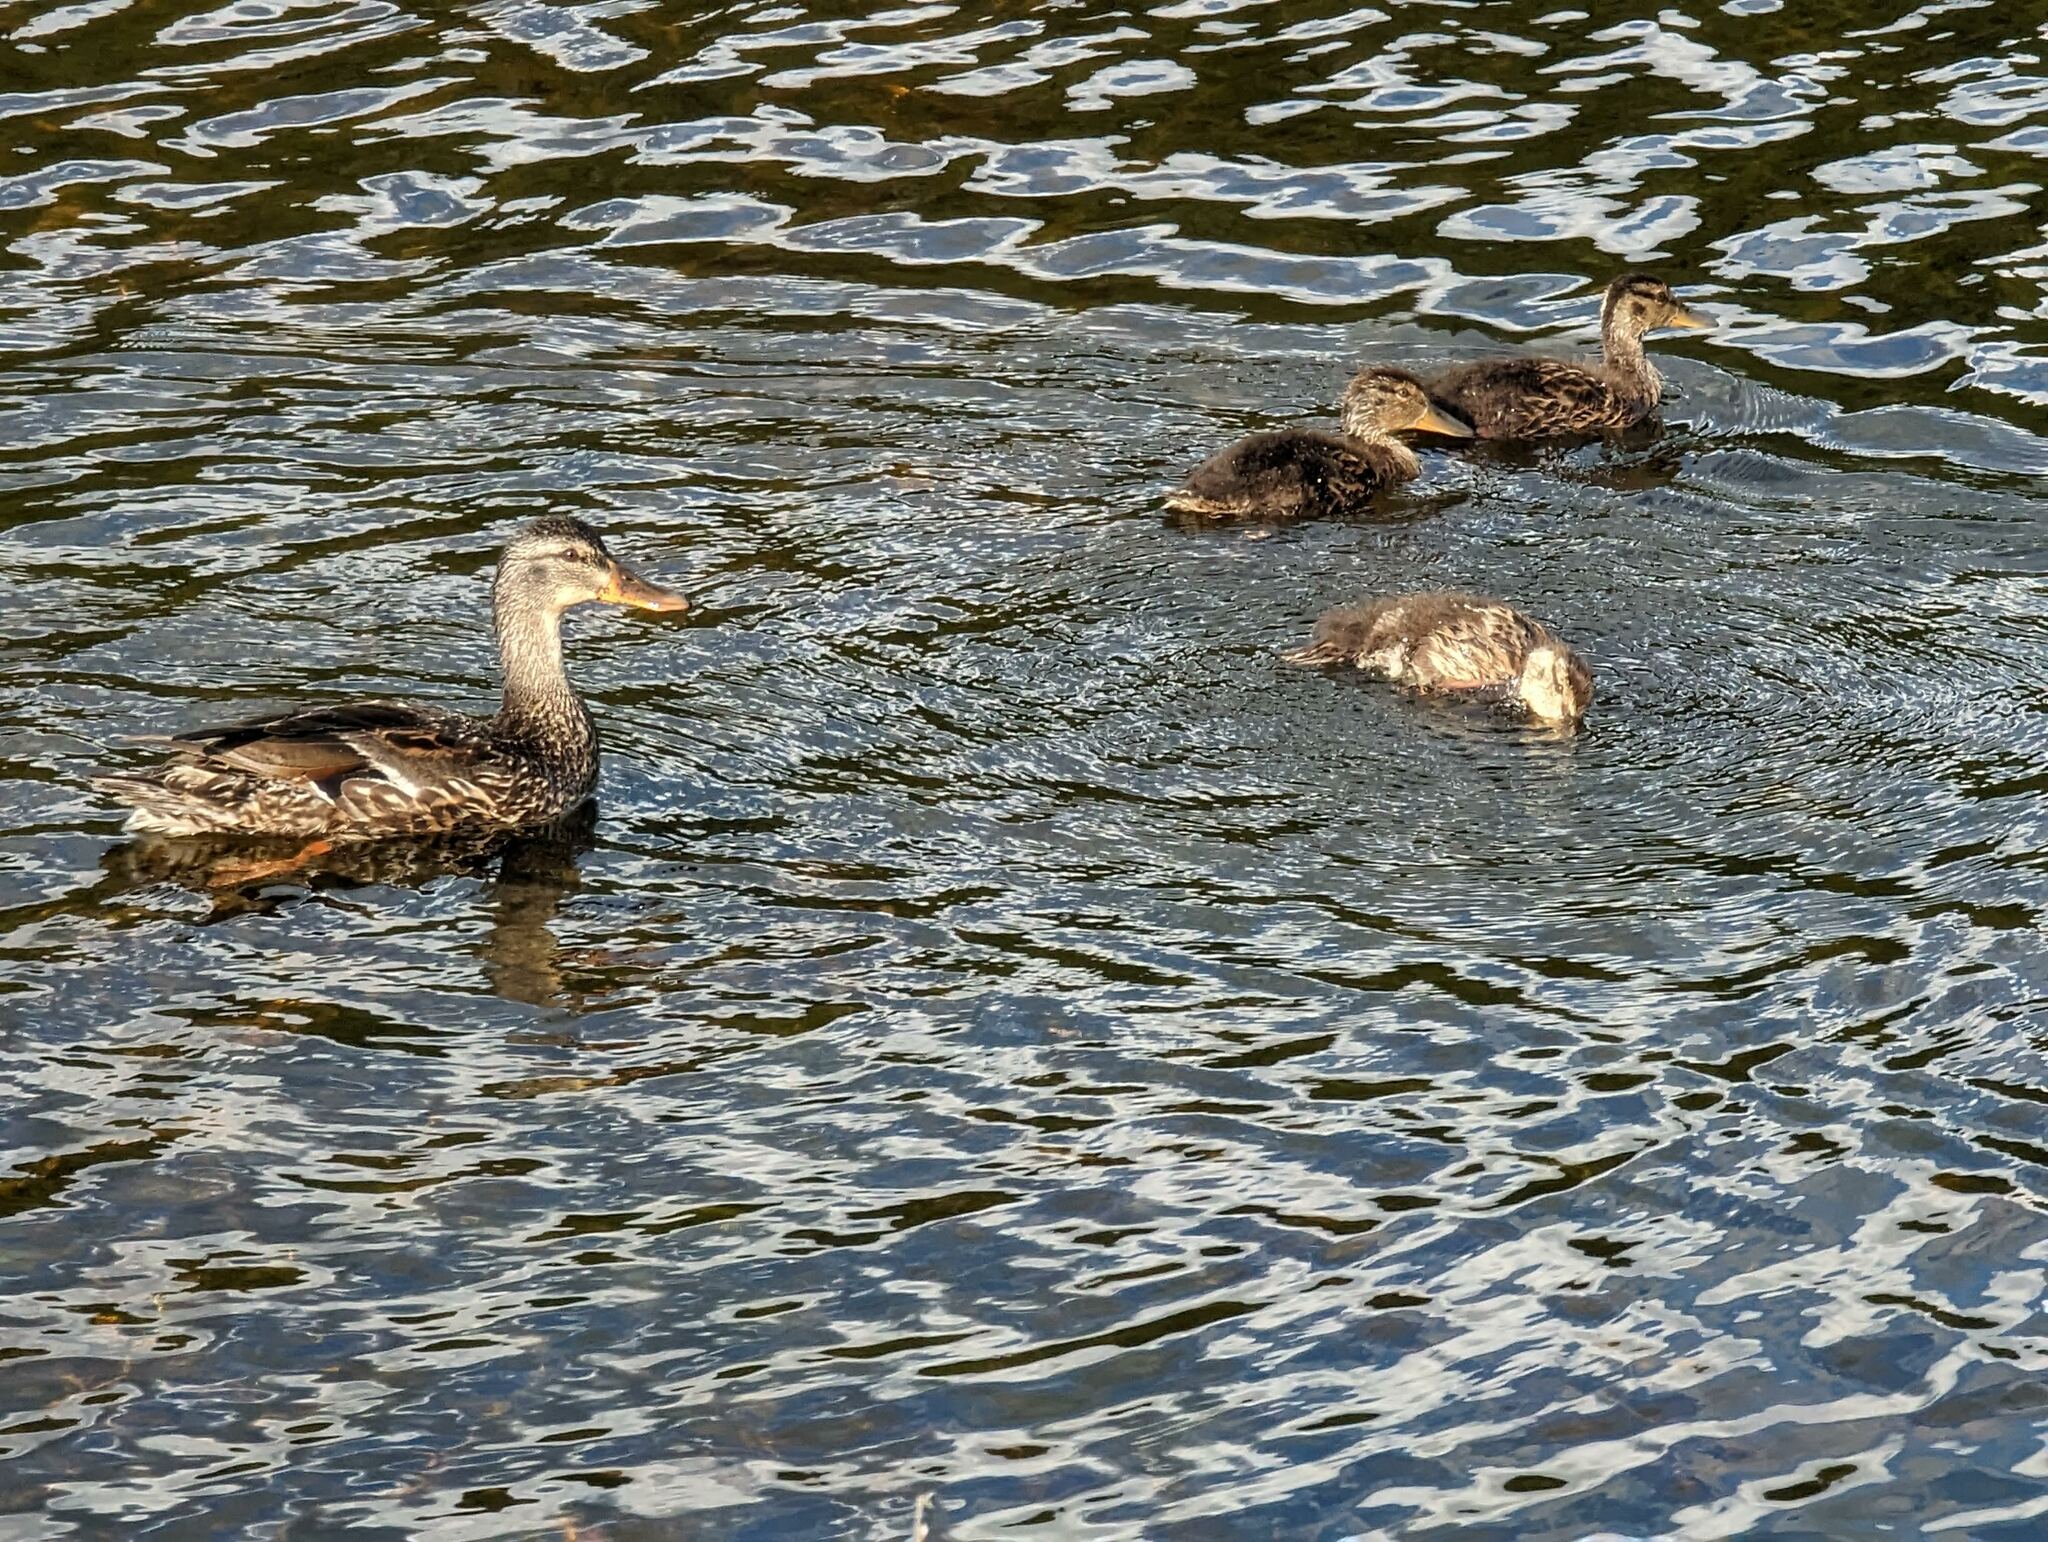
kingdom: Animalia
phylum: Chordata
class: Aves
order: Anseriformes
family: Anatidae
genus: Anas
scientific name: Anas platyrhynchos
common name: Mallard
